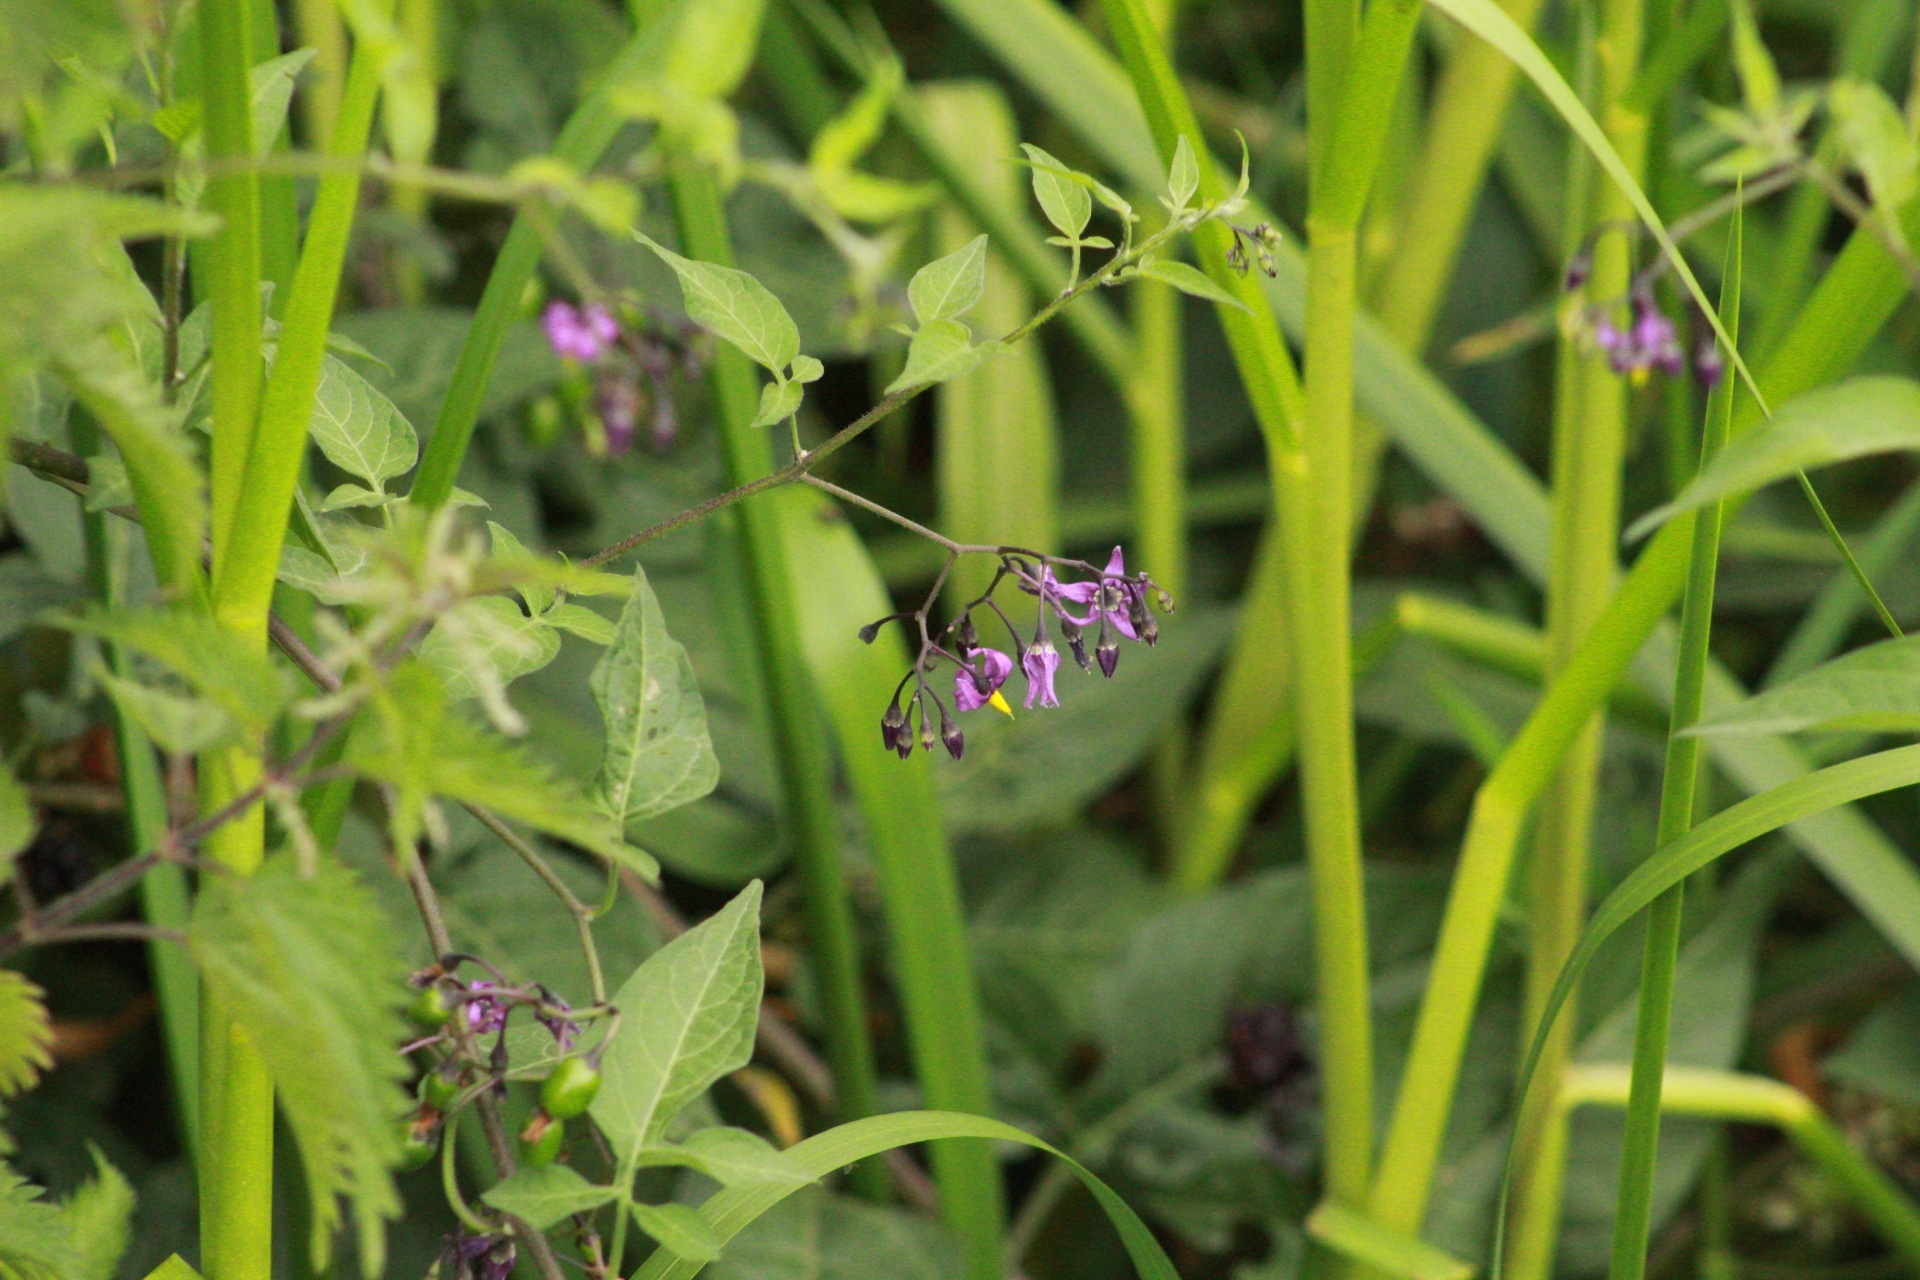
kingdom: Plantae
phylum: Tracheophyta
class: Magnoliopsida
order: Solanales
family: Solanaceae
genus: Solanum
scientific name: Solanum dulcamara
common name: Climbing nightshade
